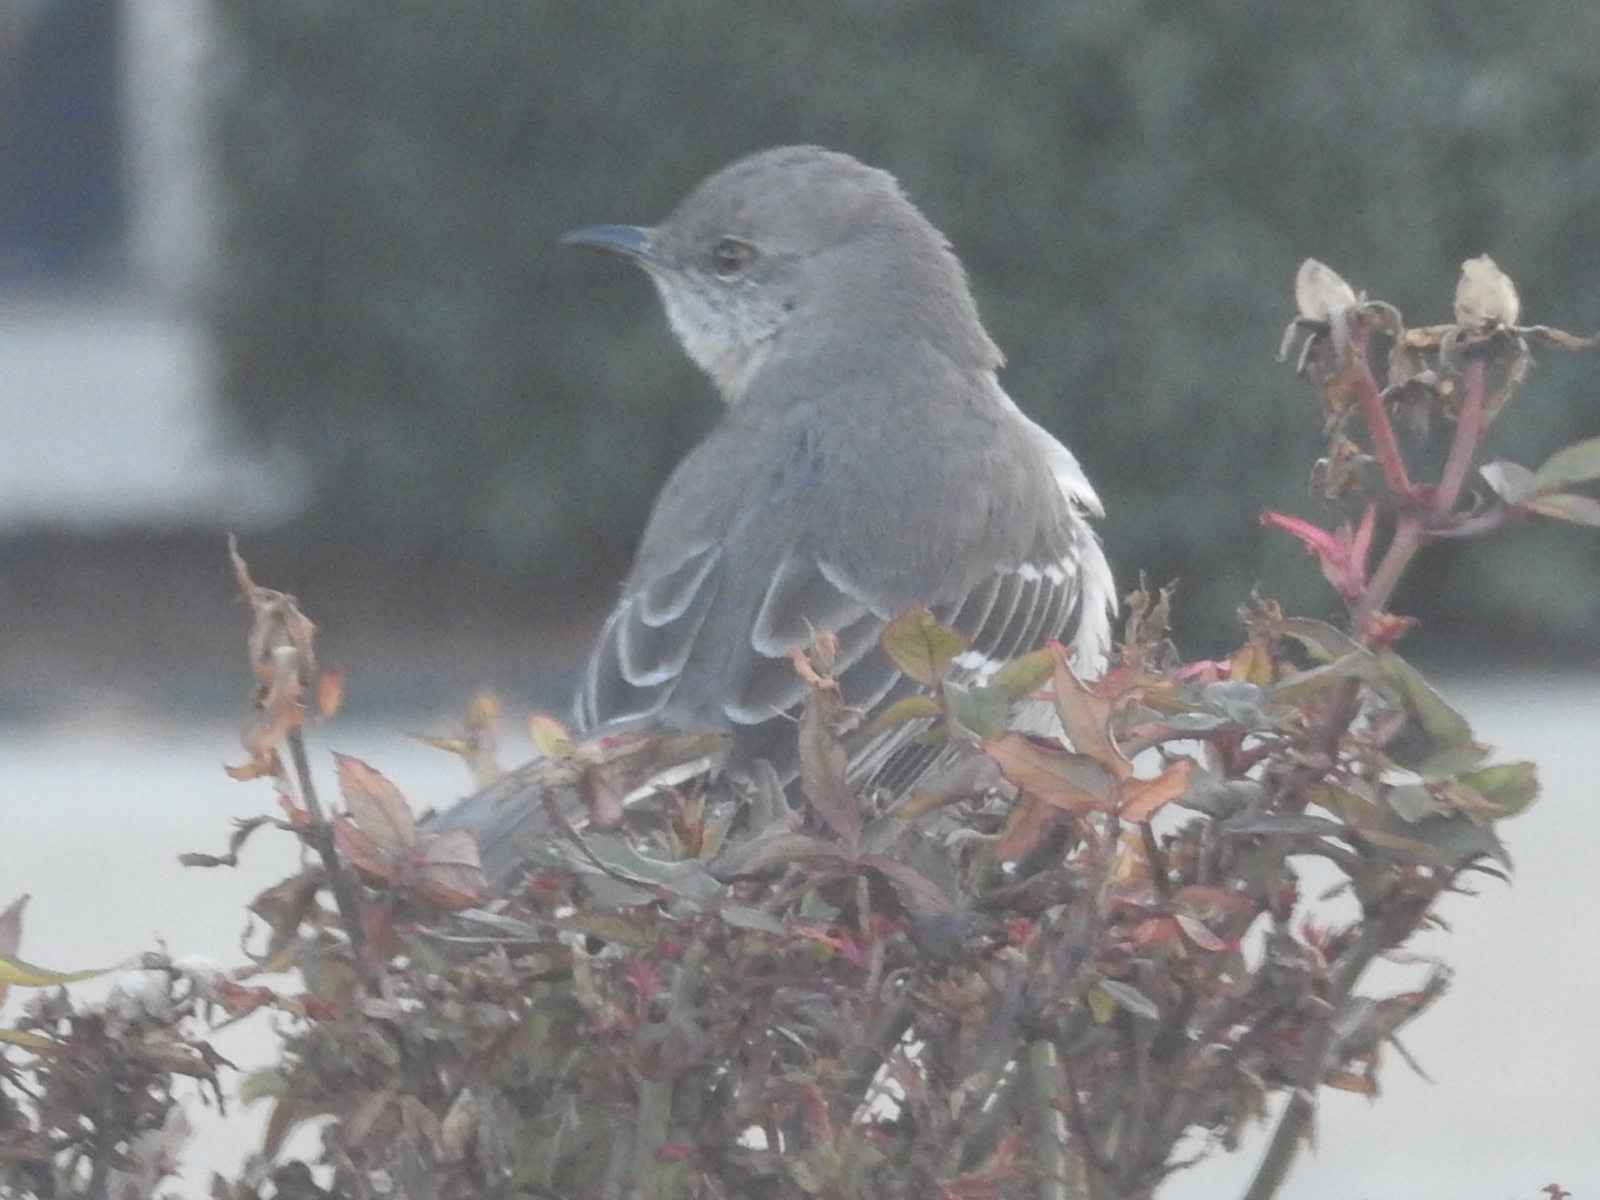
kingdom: Animalia
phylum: Chordata
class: Aves
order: Passeriformes
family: Mimidae
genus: Mimus
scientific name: Mimus polyglottos
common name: Northern mockingbird
